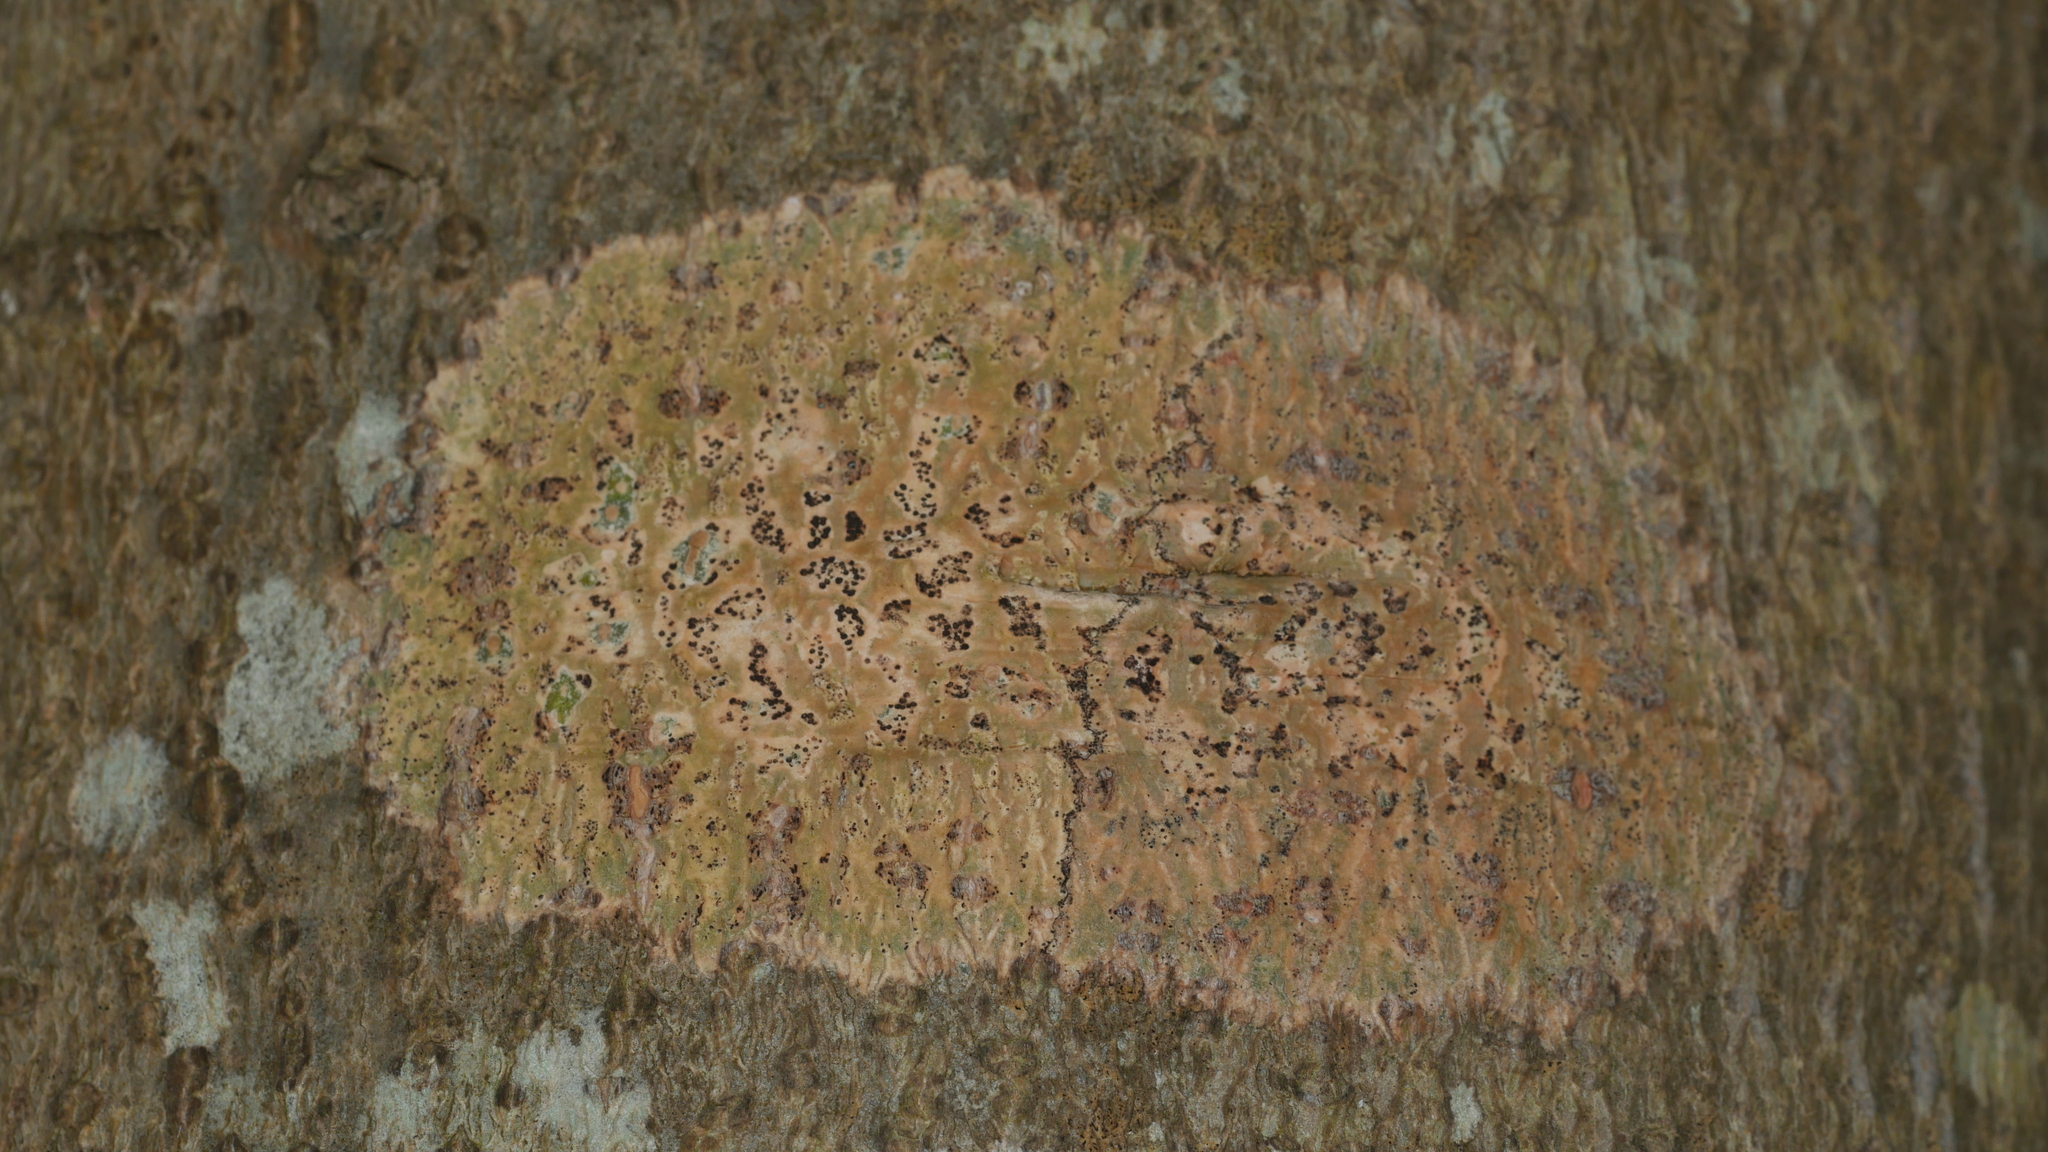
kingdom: Fungi
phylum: Ascomycota
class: Dothideomycetes
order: Trypetheliales
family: Trypetheliaceae
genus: Viridothelium
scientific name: Viridothelium virens
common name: Speckled blister lichen
